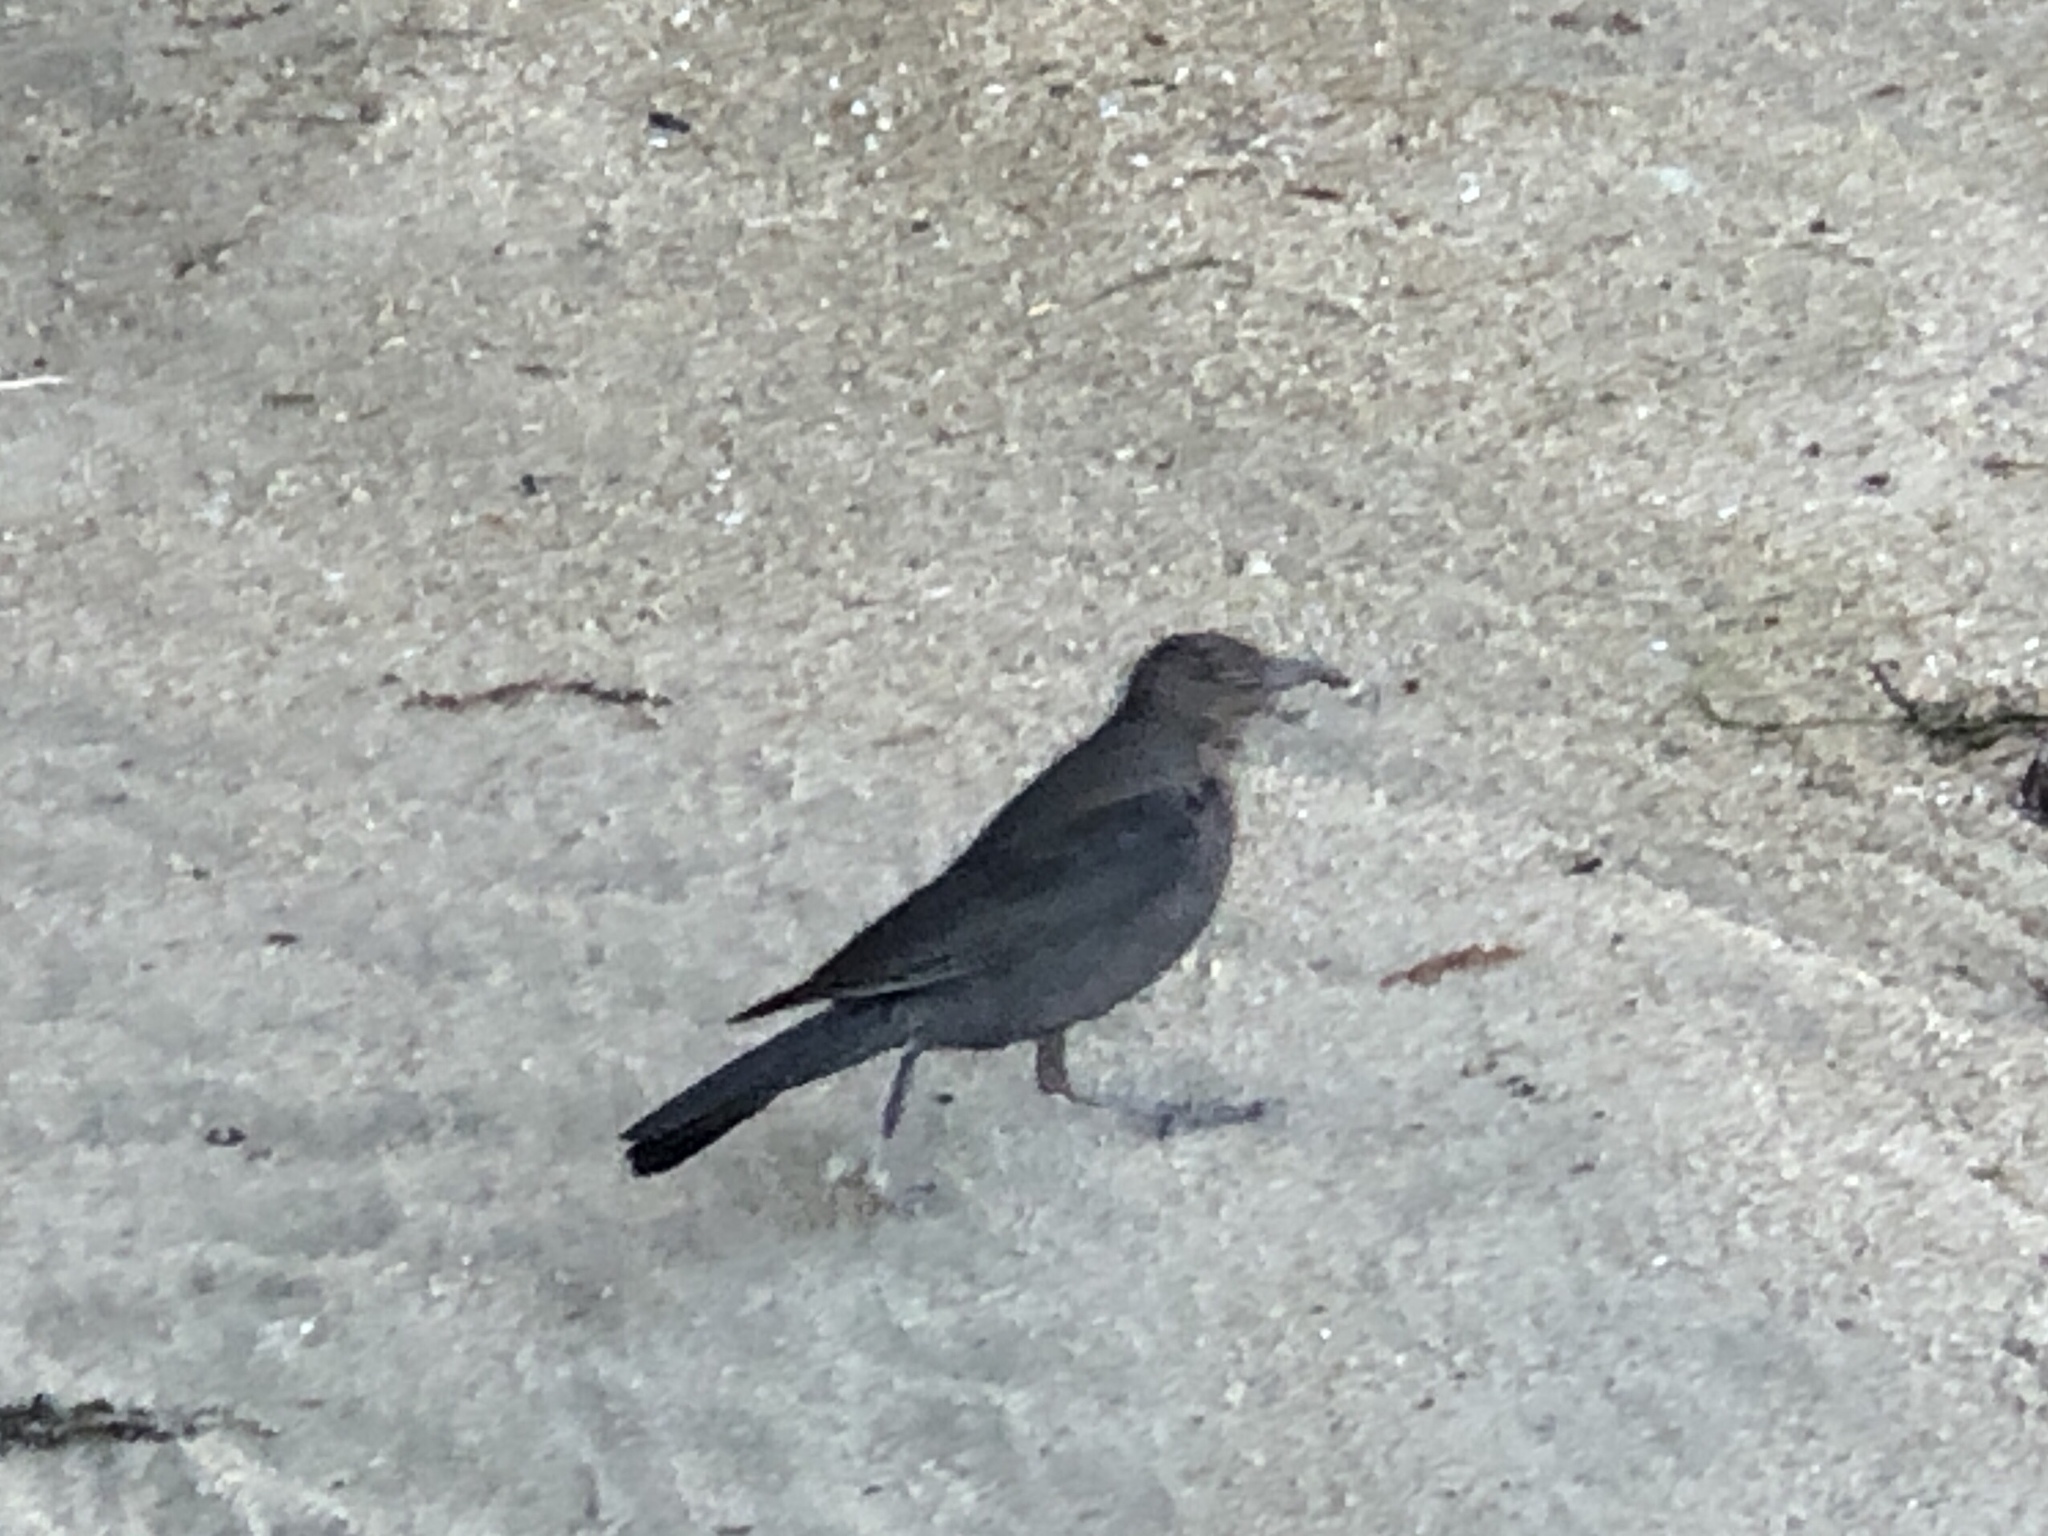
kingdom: Animalia
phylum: Chordata
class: Aves
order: Passeriformes
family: Icteridae
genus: Euphagus
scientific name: Euphagus cyanocephalus
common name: Brewer's blackbird
